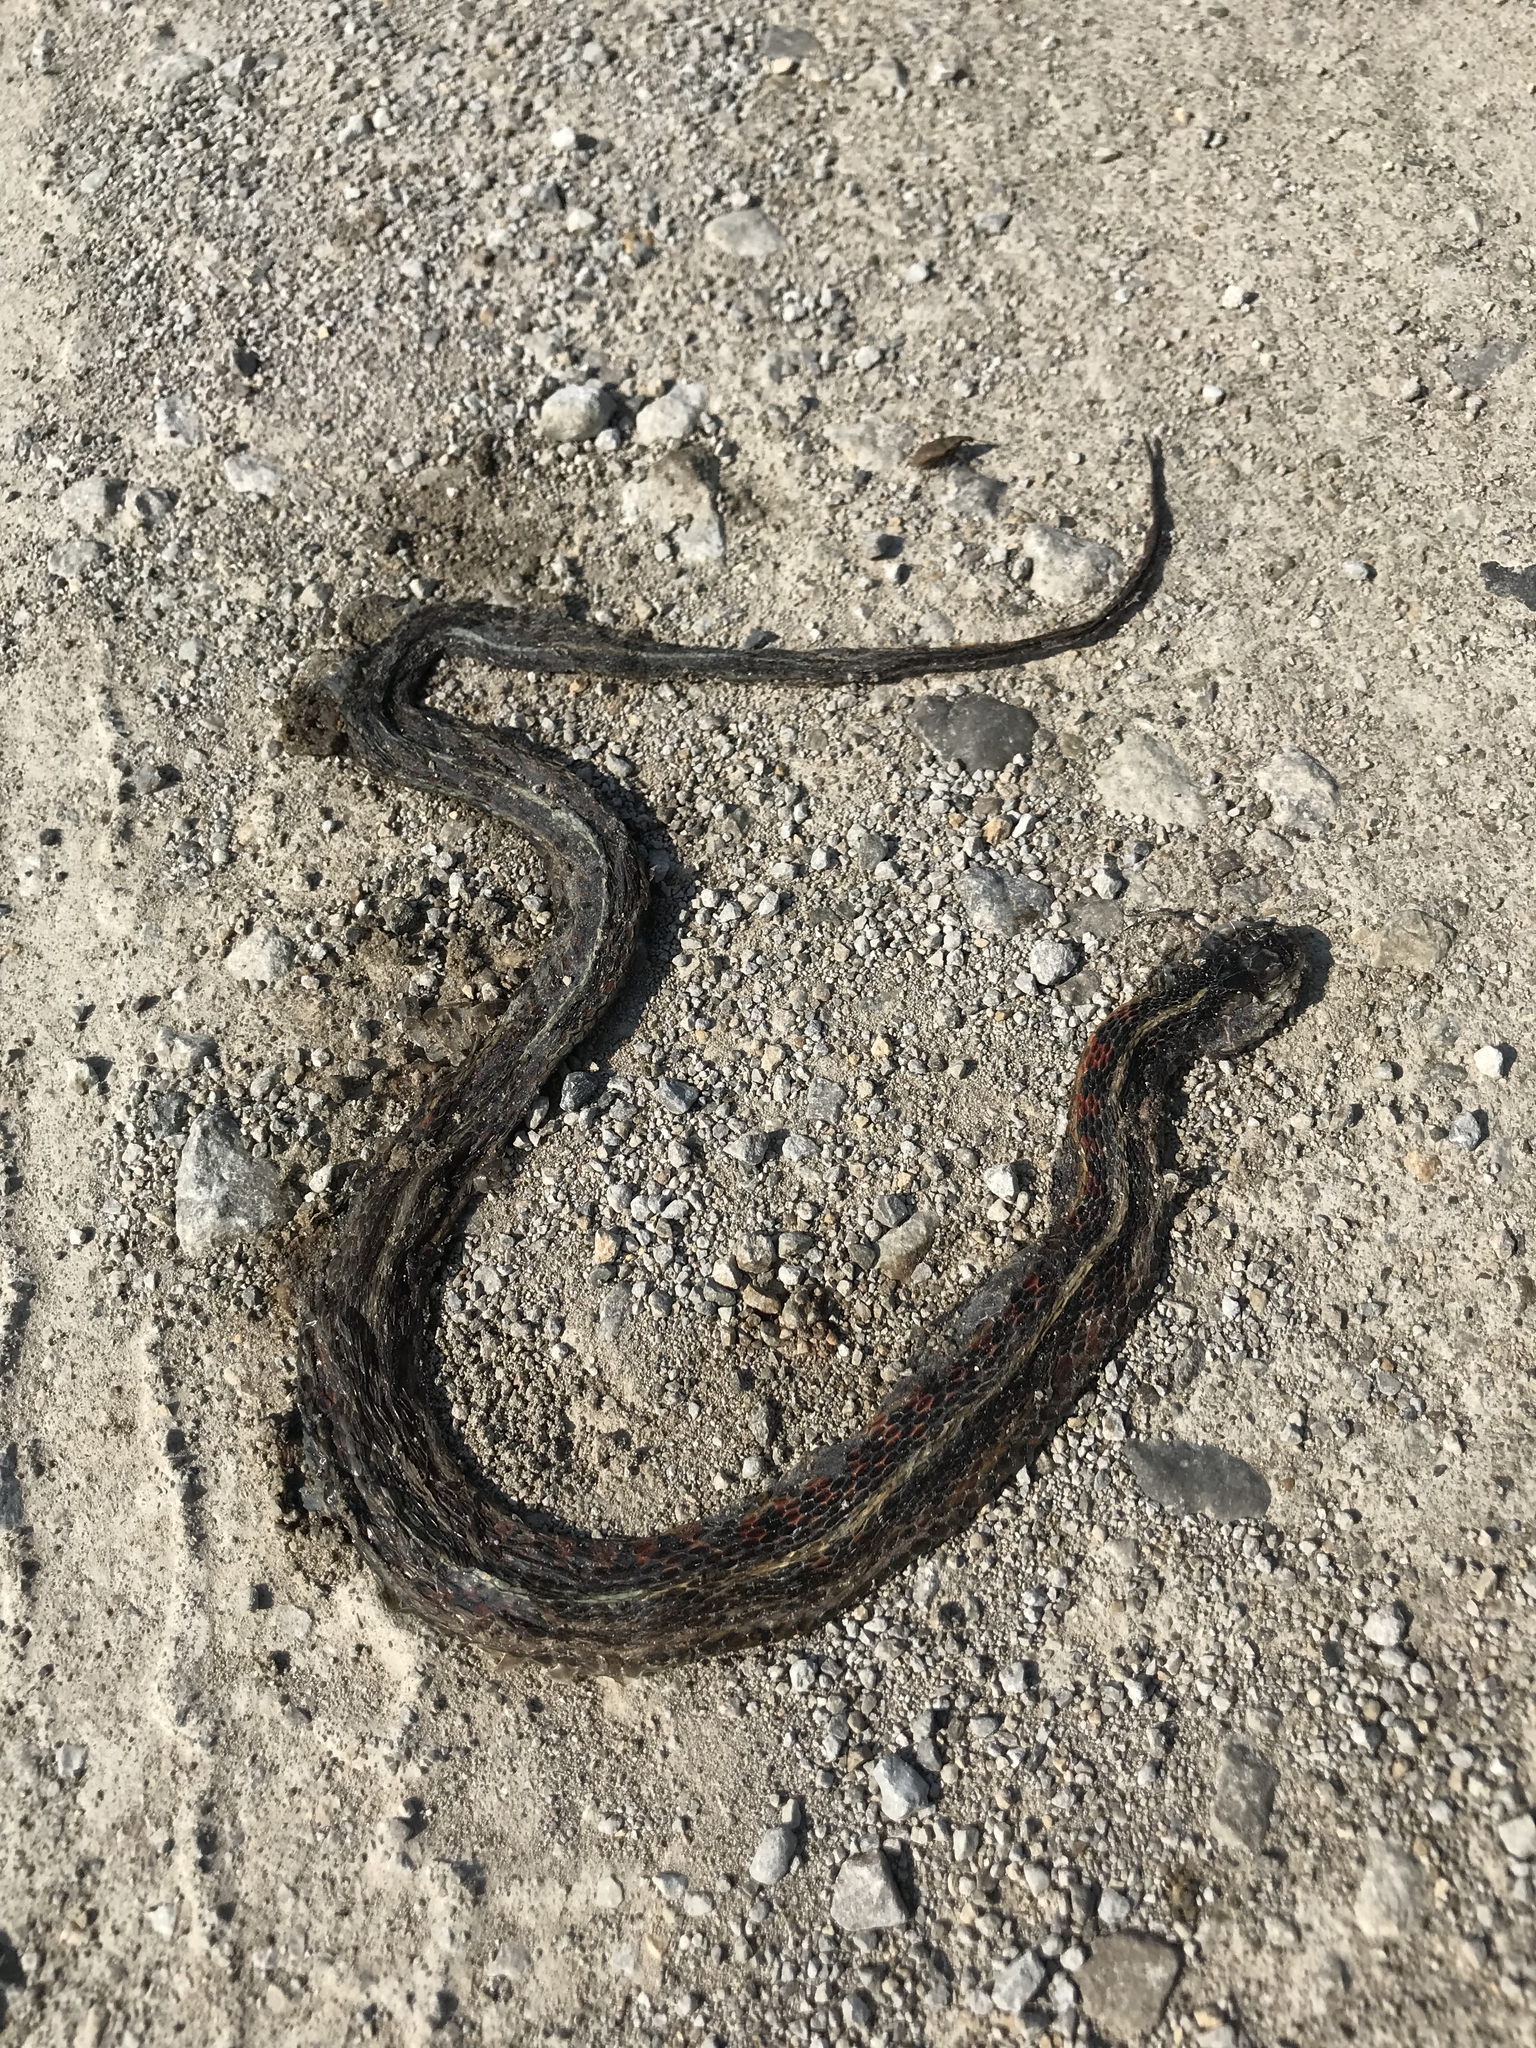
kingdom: Animalia
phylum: Chordata
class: Squamata
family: Colubridae
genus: Thamnophis
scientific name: Thamnophis sirtalis
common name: Common garter snake
